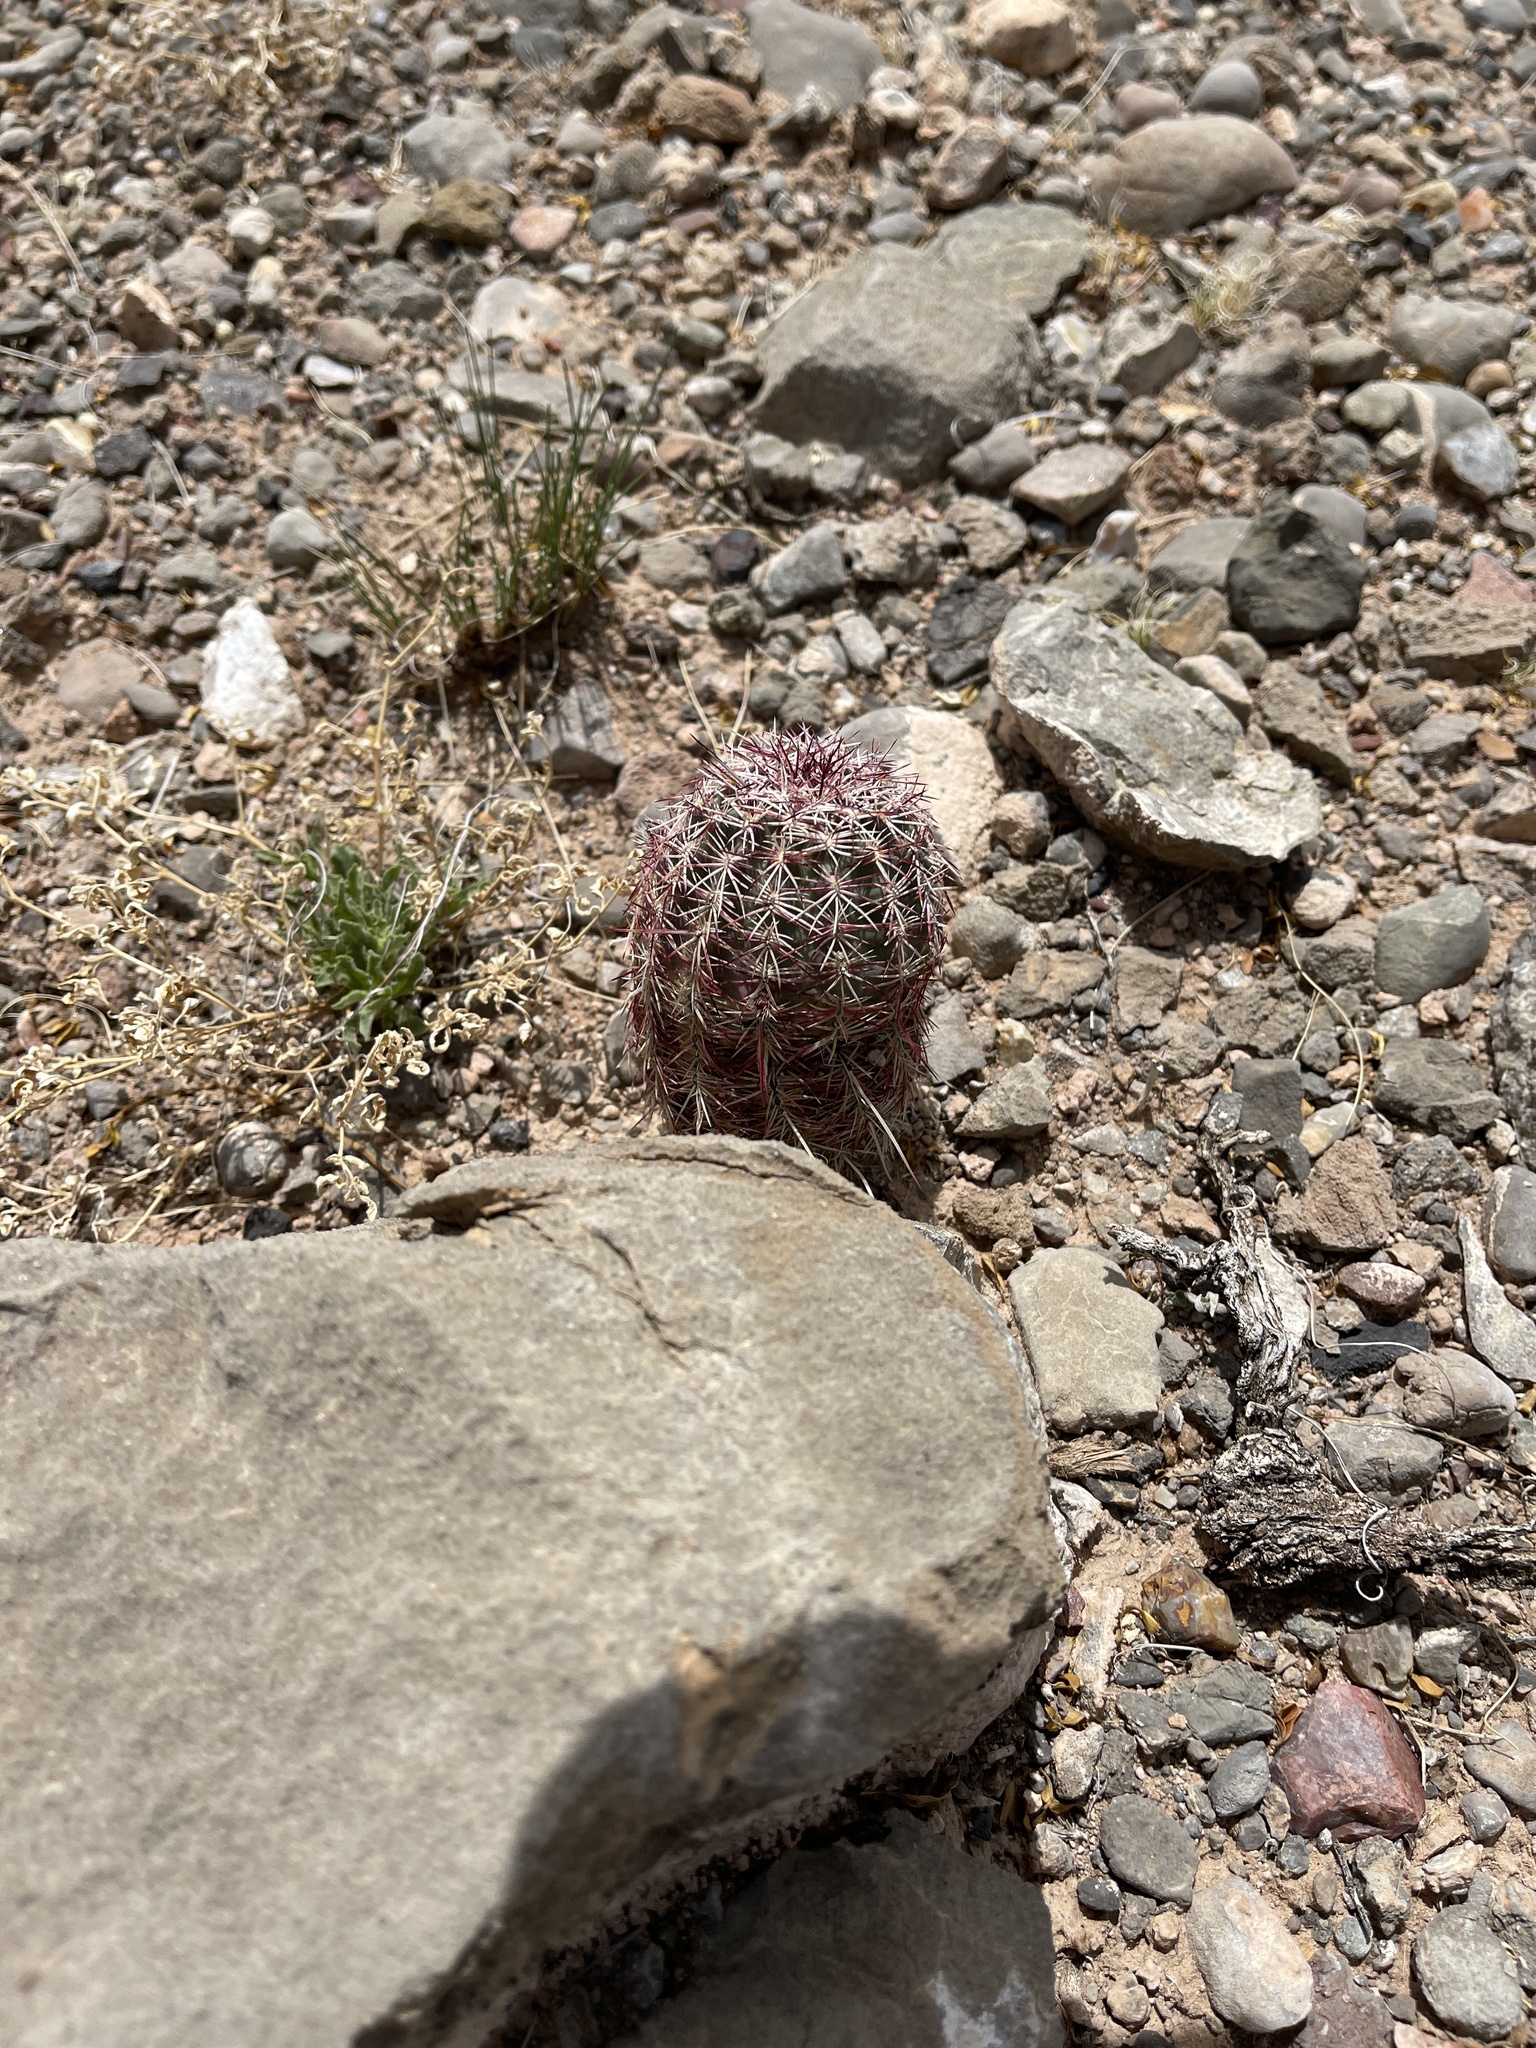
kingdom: Plantae
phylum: Tracheophyta
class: Magnoliopsida
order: Caryophyllales
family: Cactaceae
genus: Echinocereus
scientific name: Echinocereus viridiflorus
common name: Nylon hedgehog cactus
